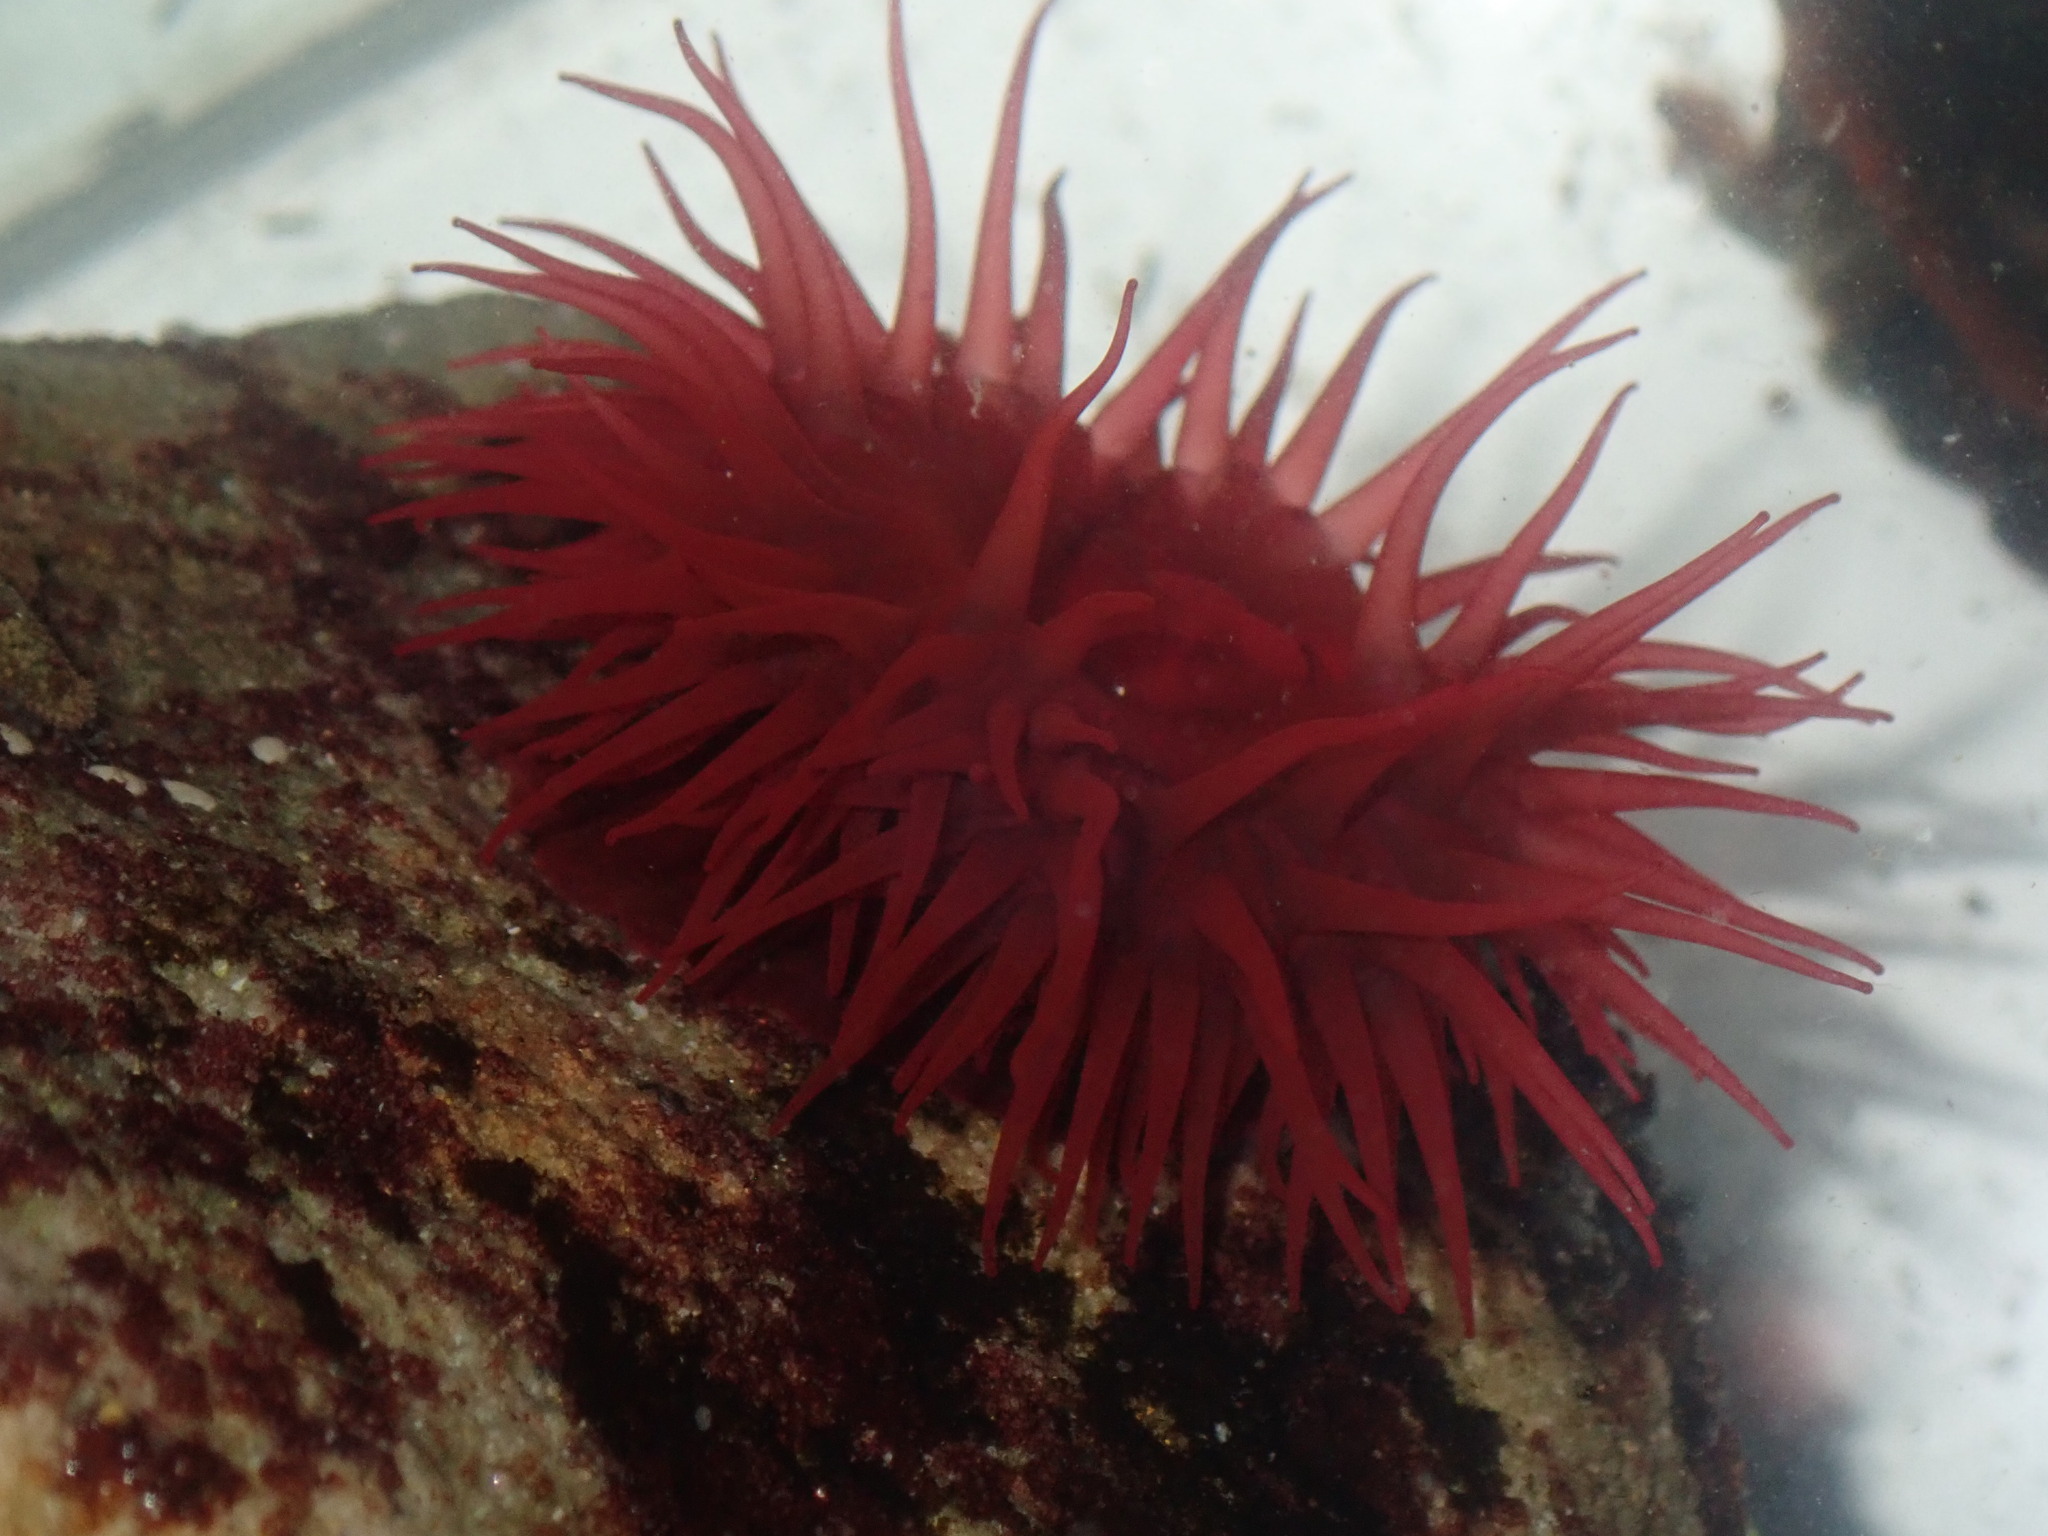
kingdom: Animalia
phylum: Cnidaria
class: Anthozoa
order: Actiniaria
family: Actiniidae
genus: Actinia
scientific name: Actinia tenebrosa
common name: Waratah anemone
